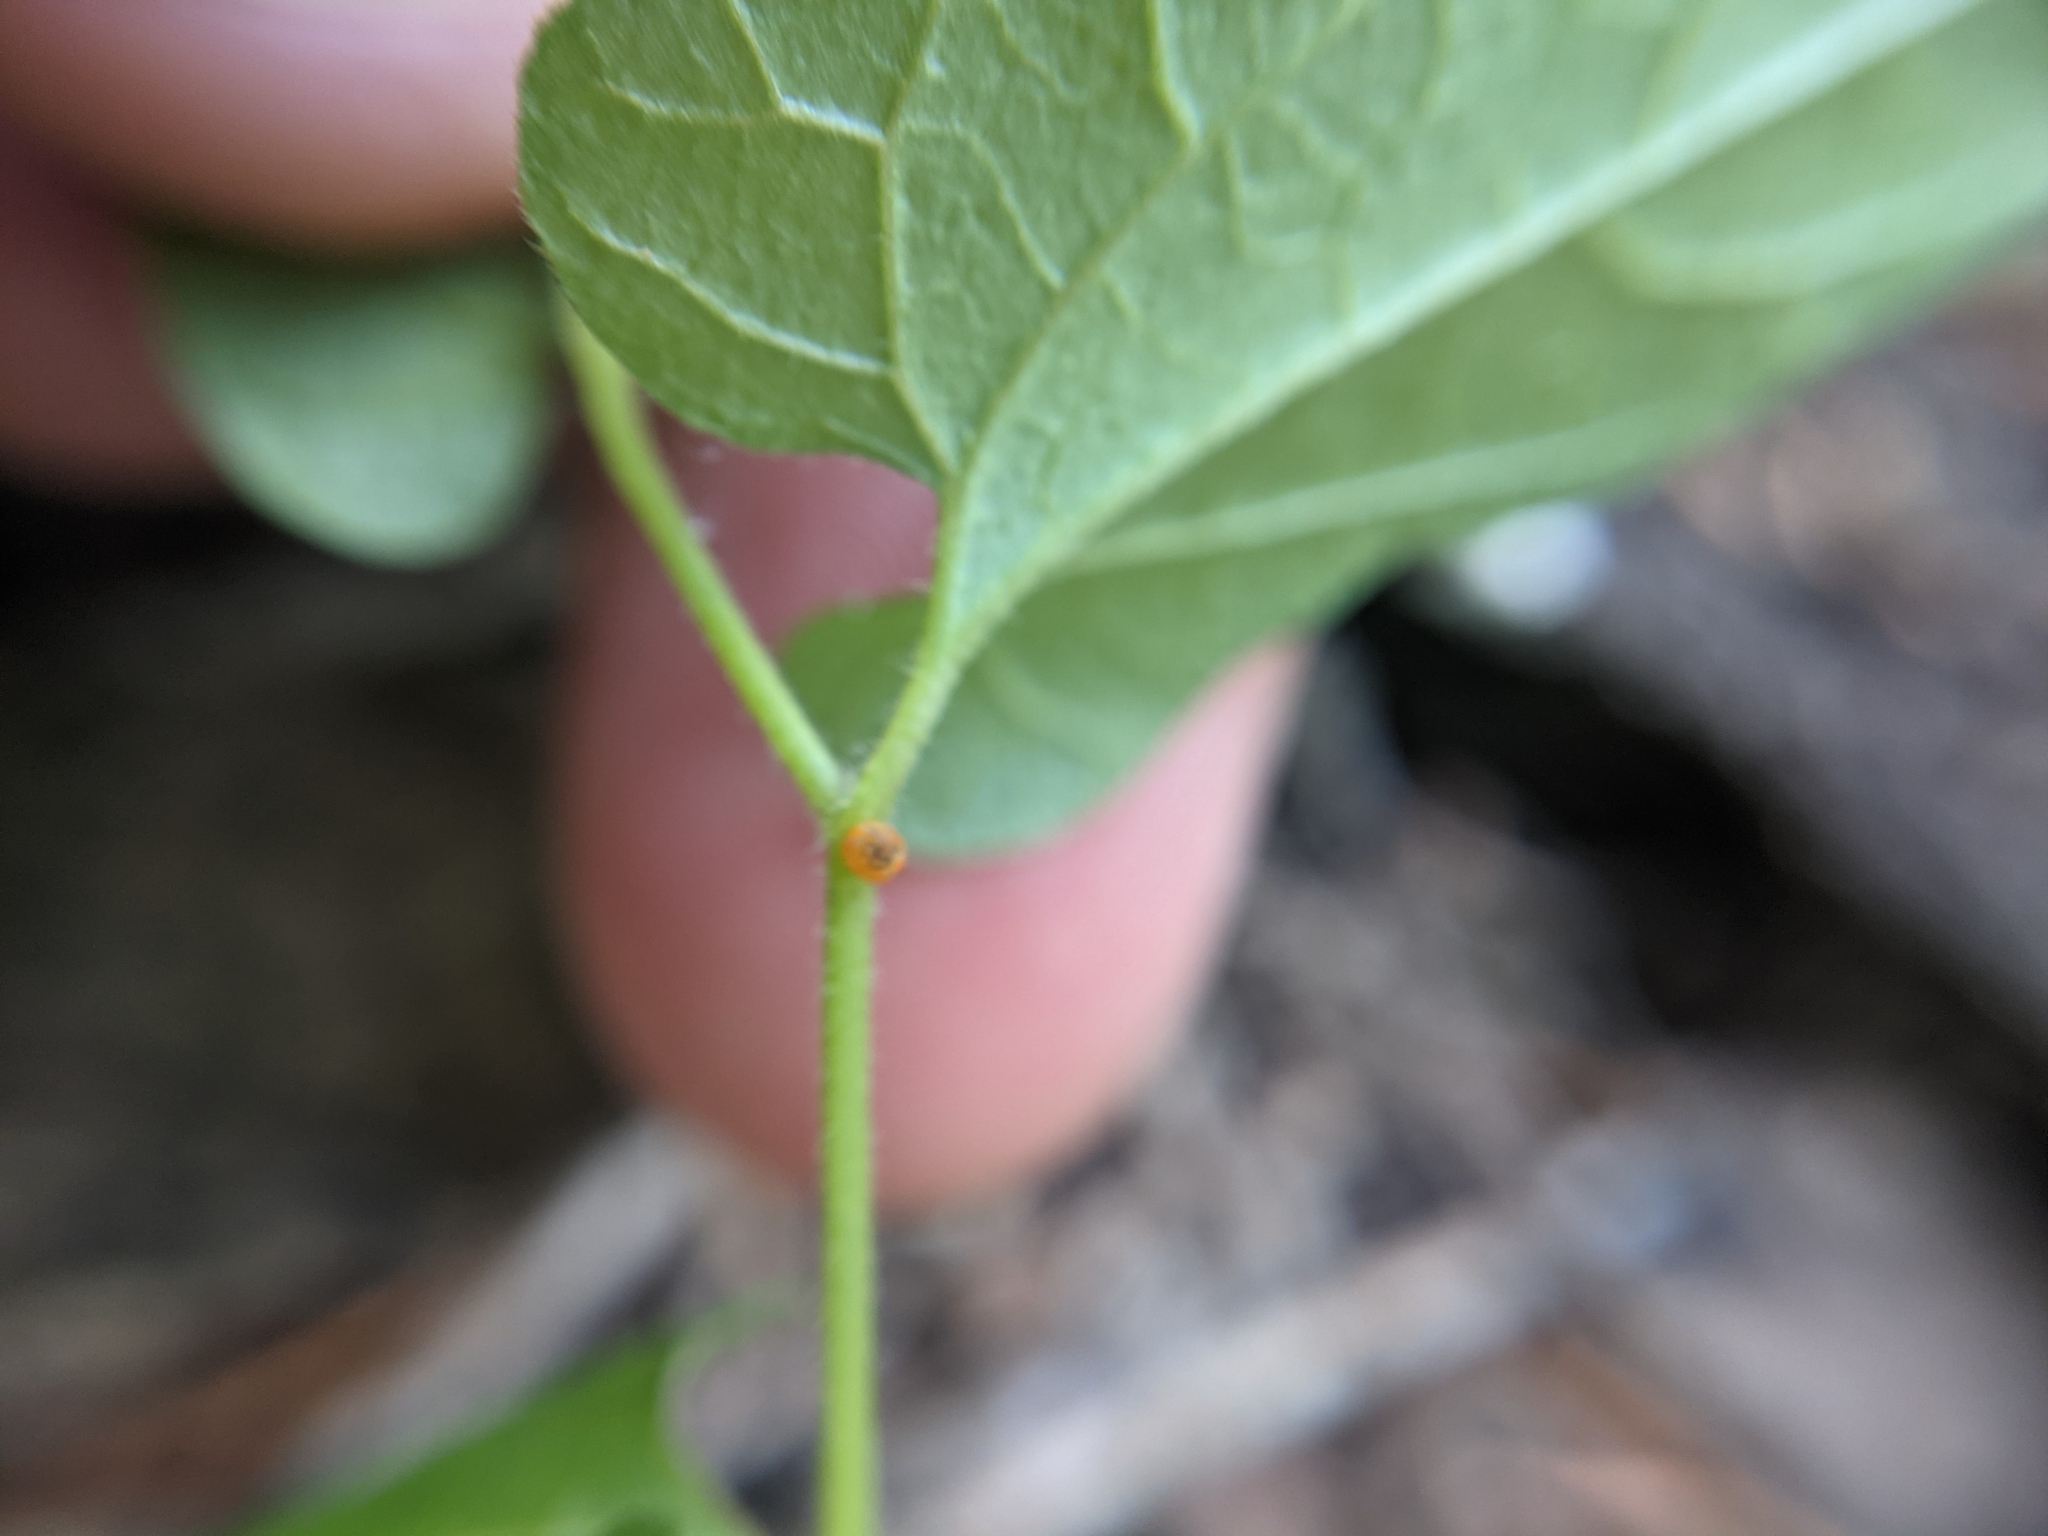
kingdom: Animalia
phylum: Arthropoda
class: Insecta
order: Lepidoptera
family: Papilionidae
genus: Battus
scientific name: Battus philenor
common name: Pipevine swallowtail
